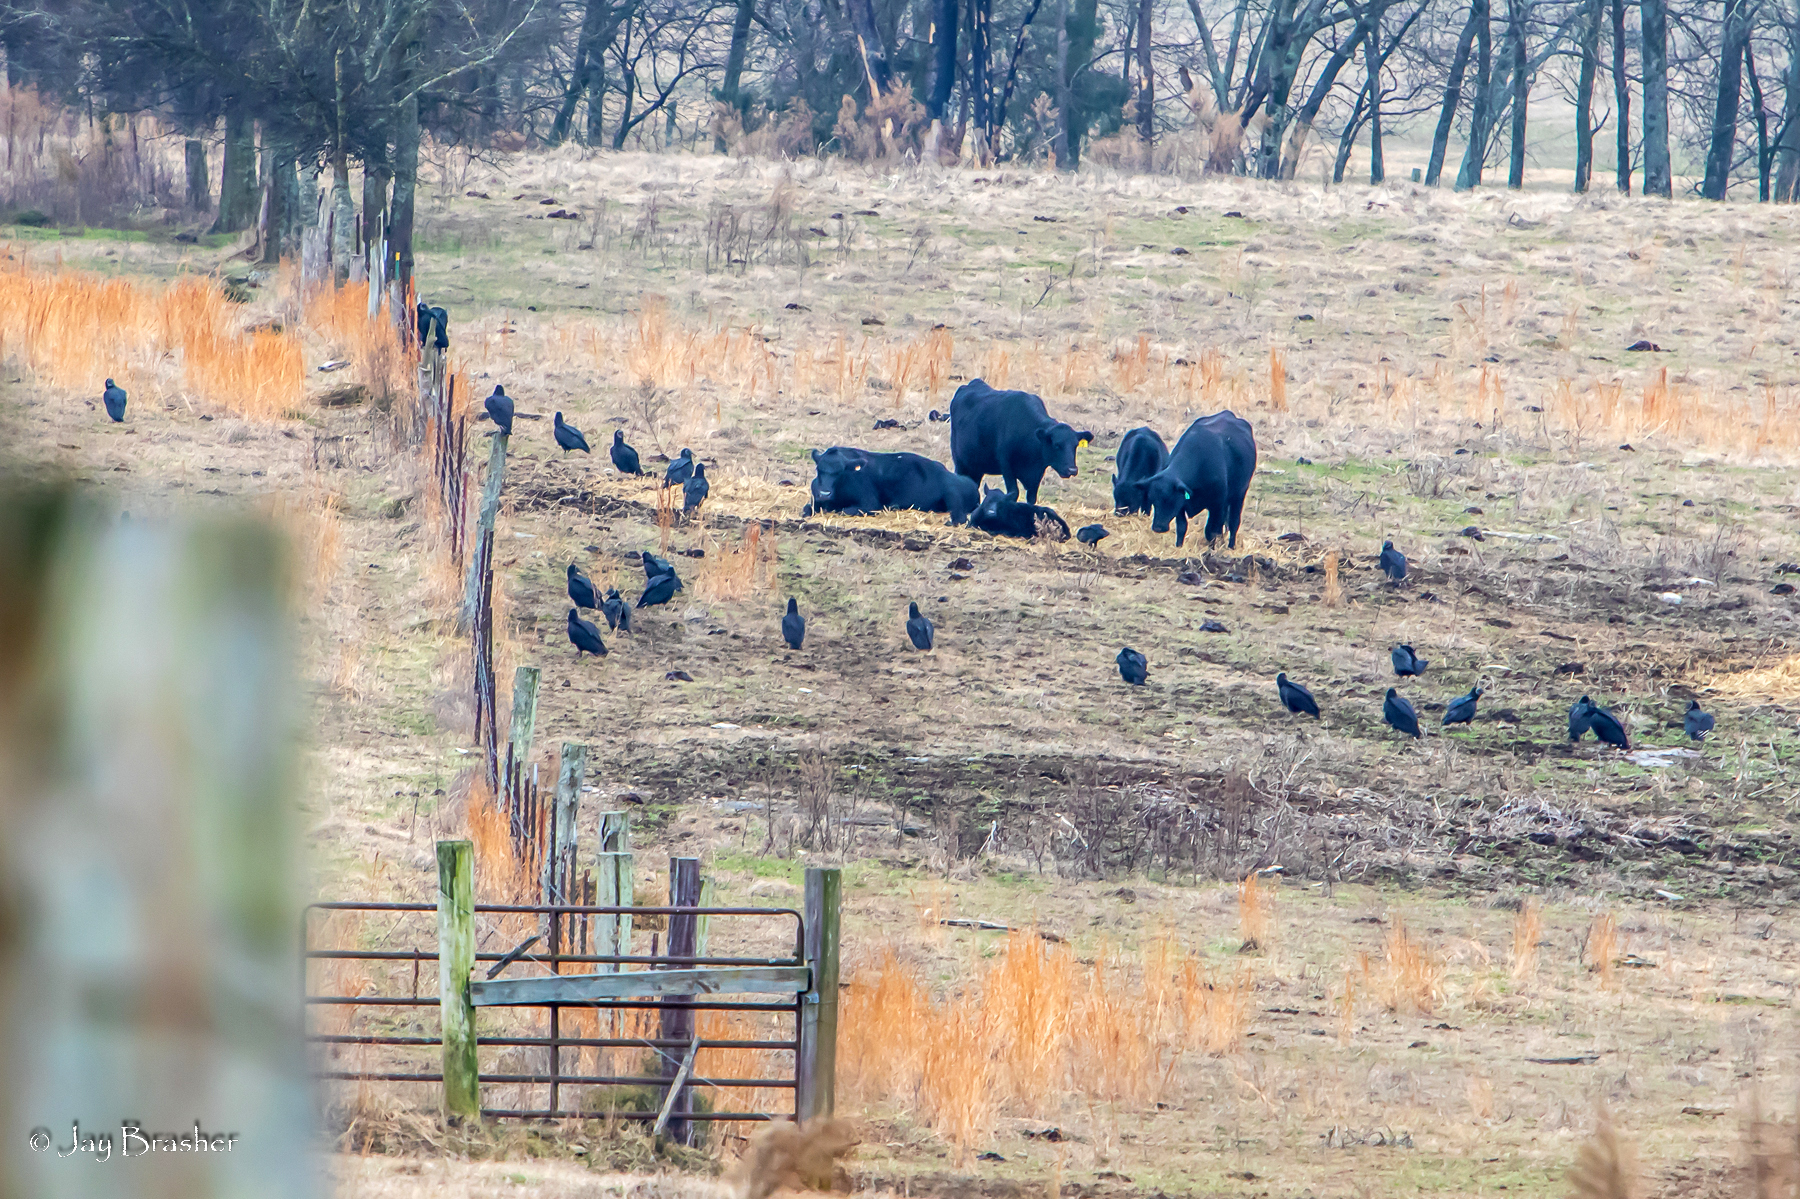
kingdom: Animalia
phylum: Chordata
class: Aves
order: Accipitriformes
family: Cathartidae
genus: Coragyps
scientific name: Coragyps atratus
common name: Black vulture
